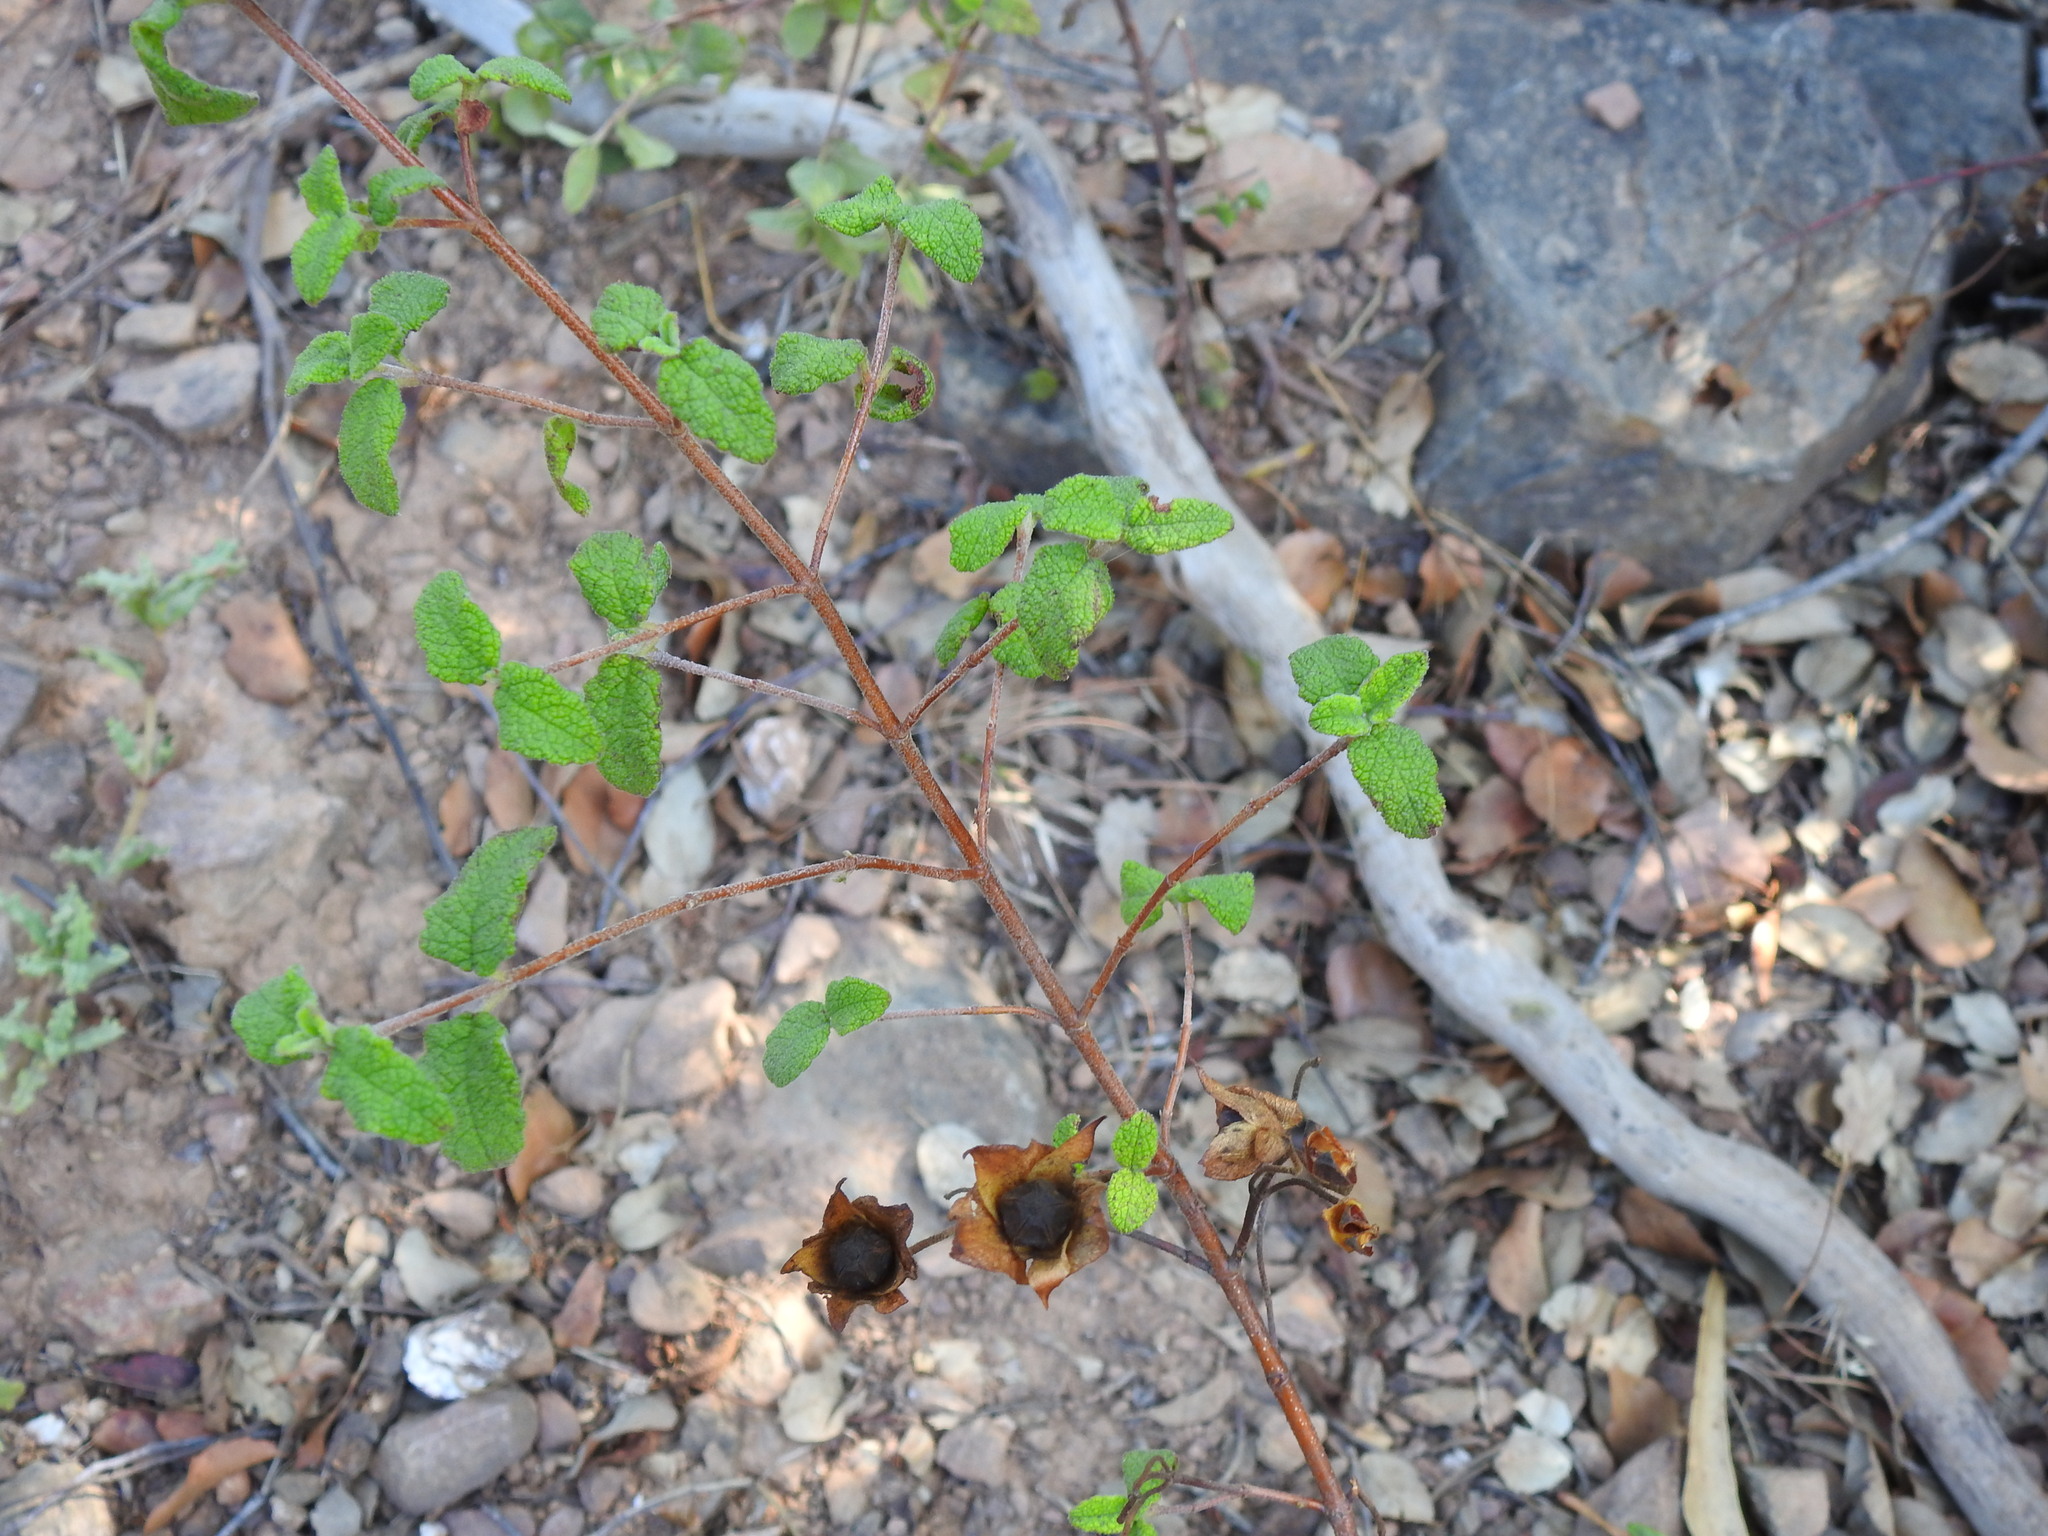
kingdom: Plantae
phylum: Tracheophyta
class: Magnoliopsida
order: Malvales
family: Cistaceae
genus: Cistus
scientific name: Cistus salviifolius
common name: Salvia cistus
